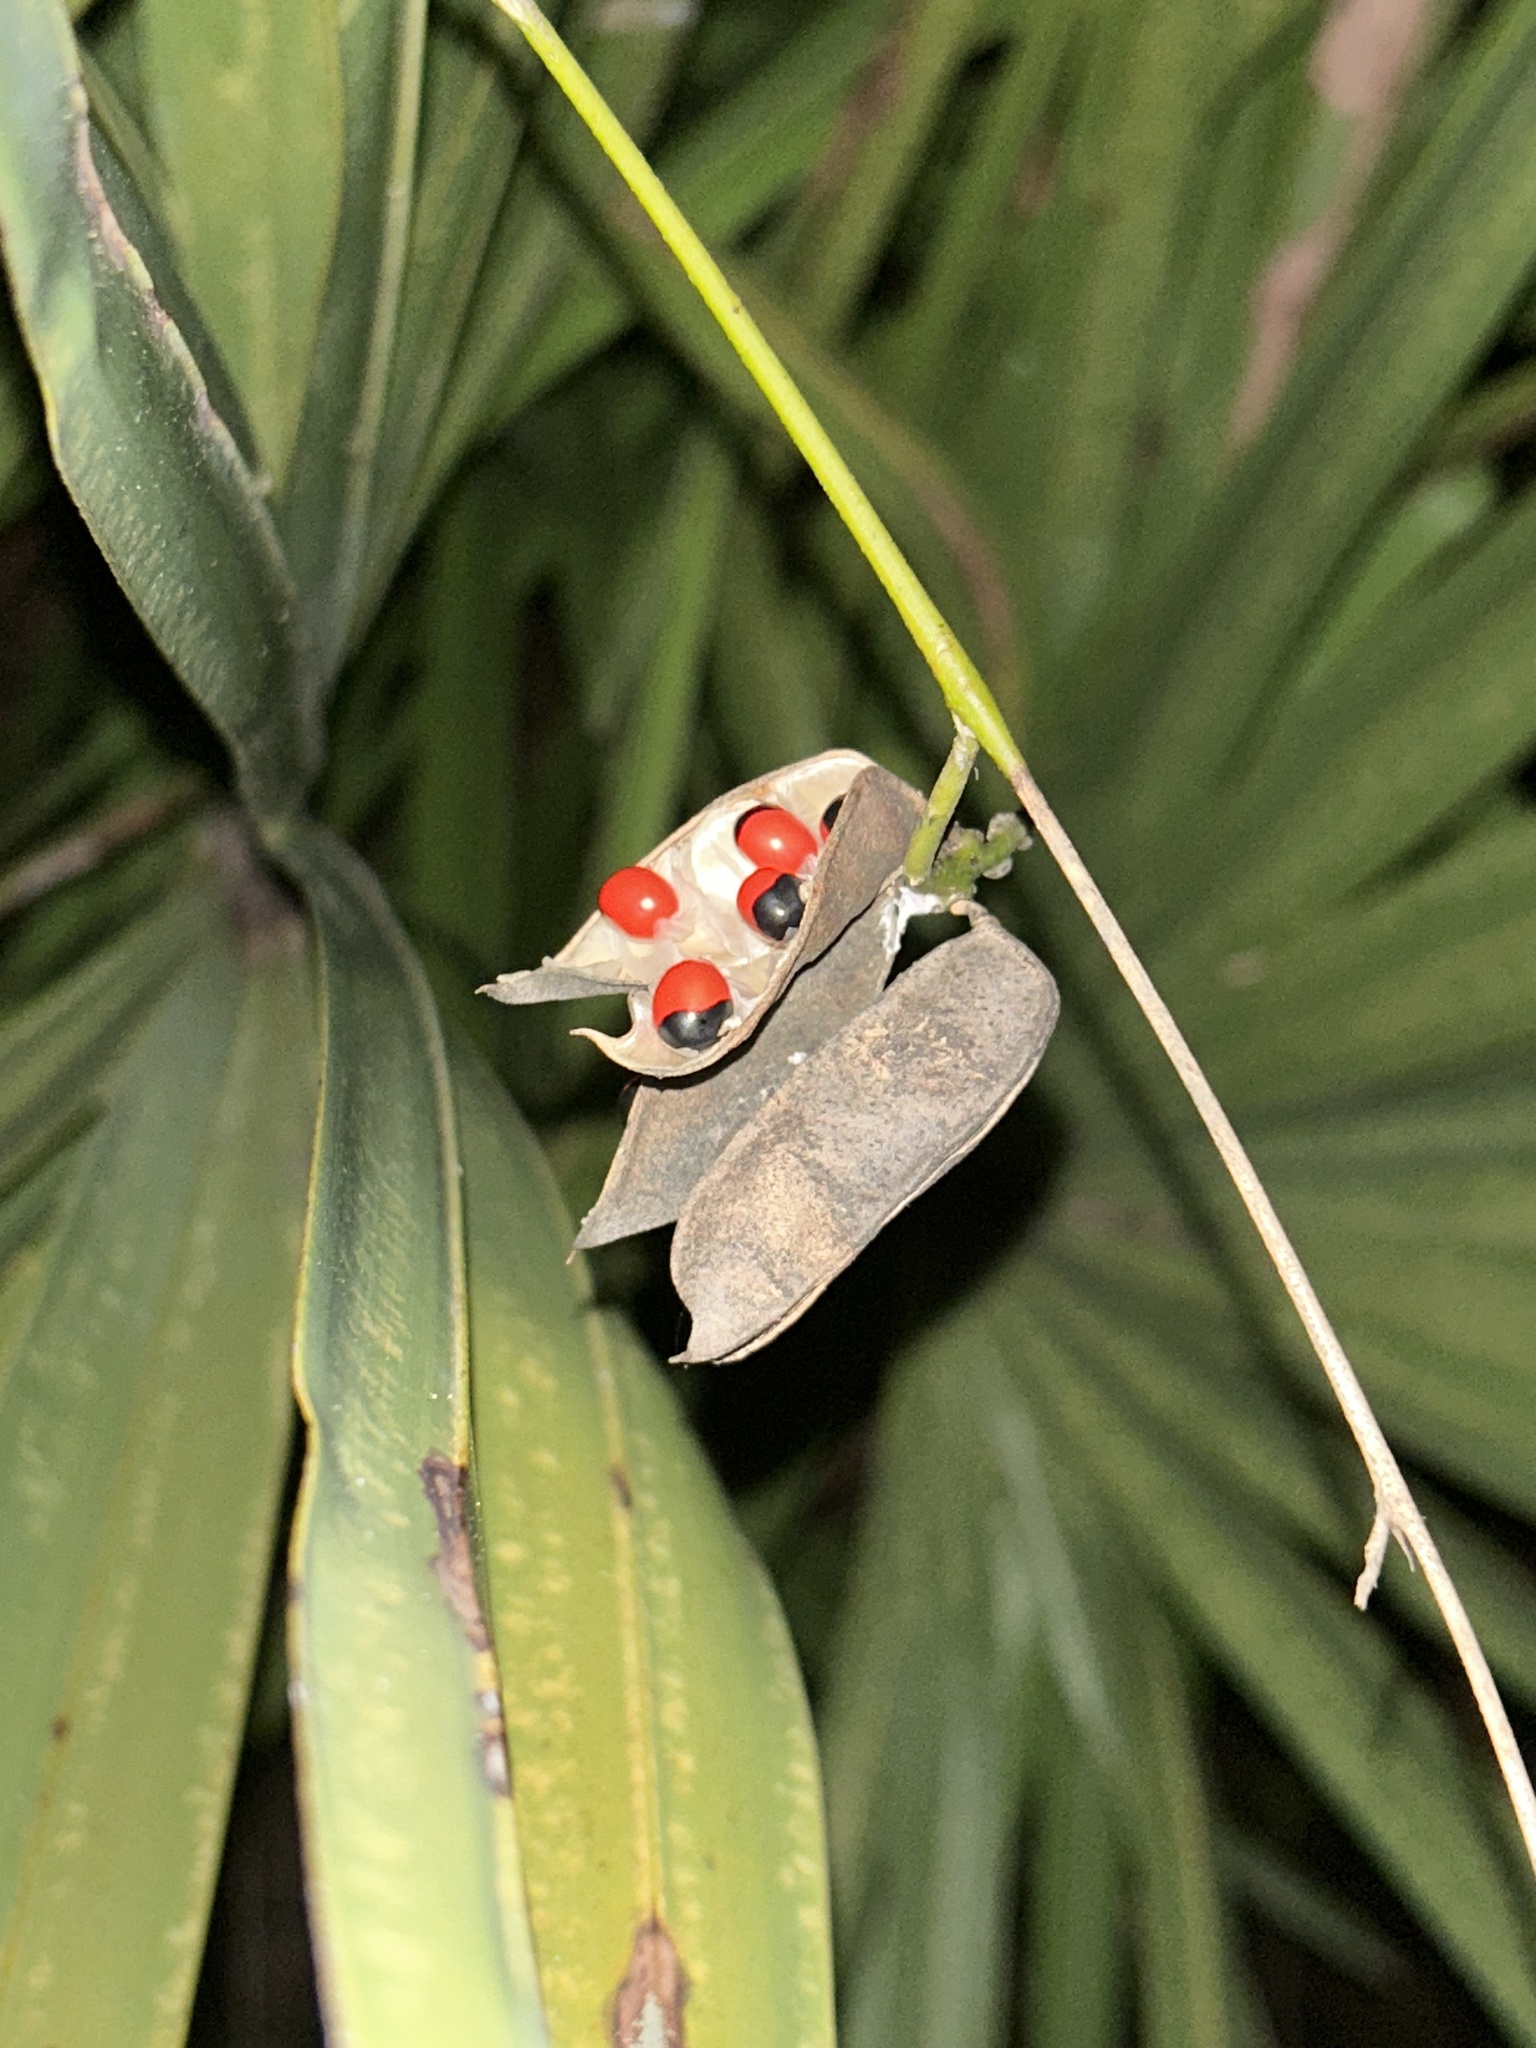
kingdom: Plantae
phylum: Tracheophyta
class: Magnoliopsida
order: Fabales
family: Fabaceae
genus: Abrus
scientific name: Abrus precatorius
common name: Rosarypea
